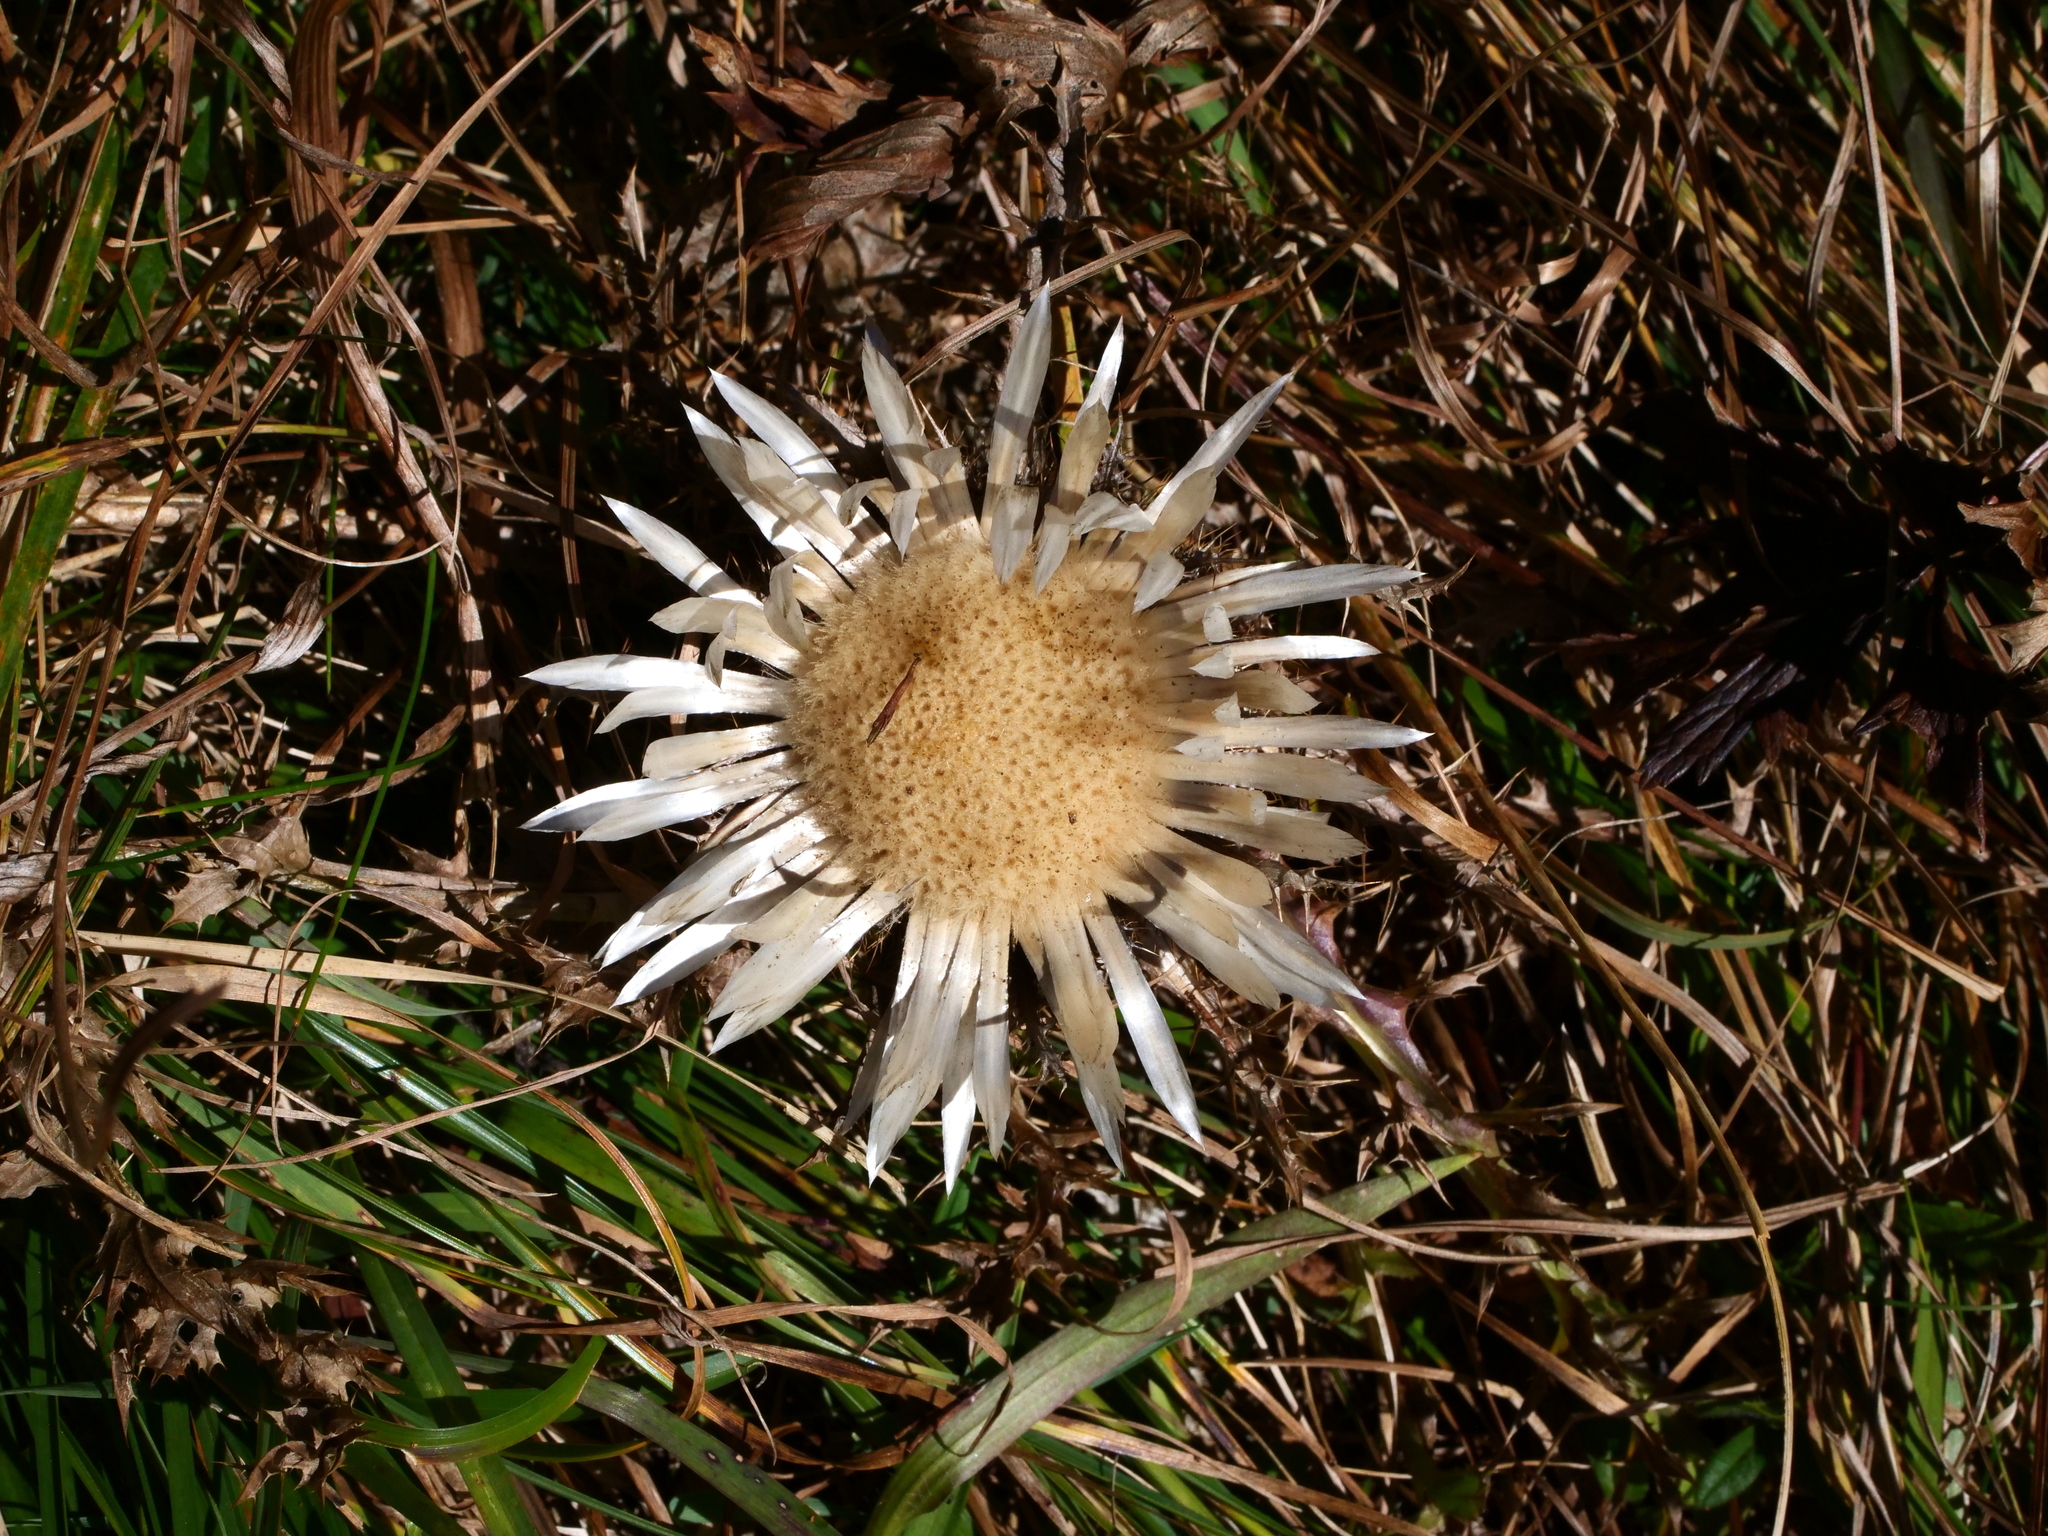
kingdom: Plantae
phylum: Tracheophyta
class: Magnoliopsida
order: Asterales
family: Asteraceae
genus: Carlina
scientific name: Carlina acaulis
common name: Stemless carline thistle
